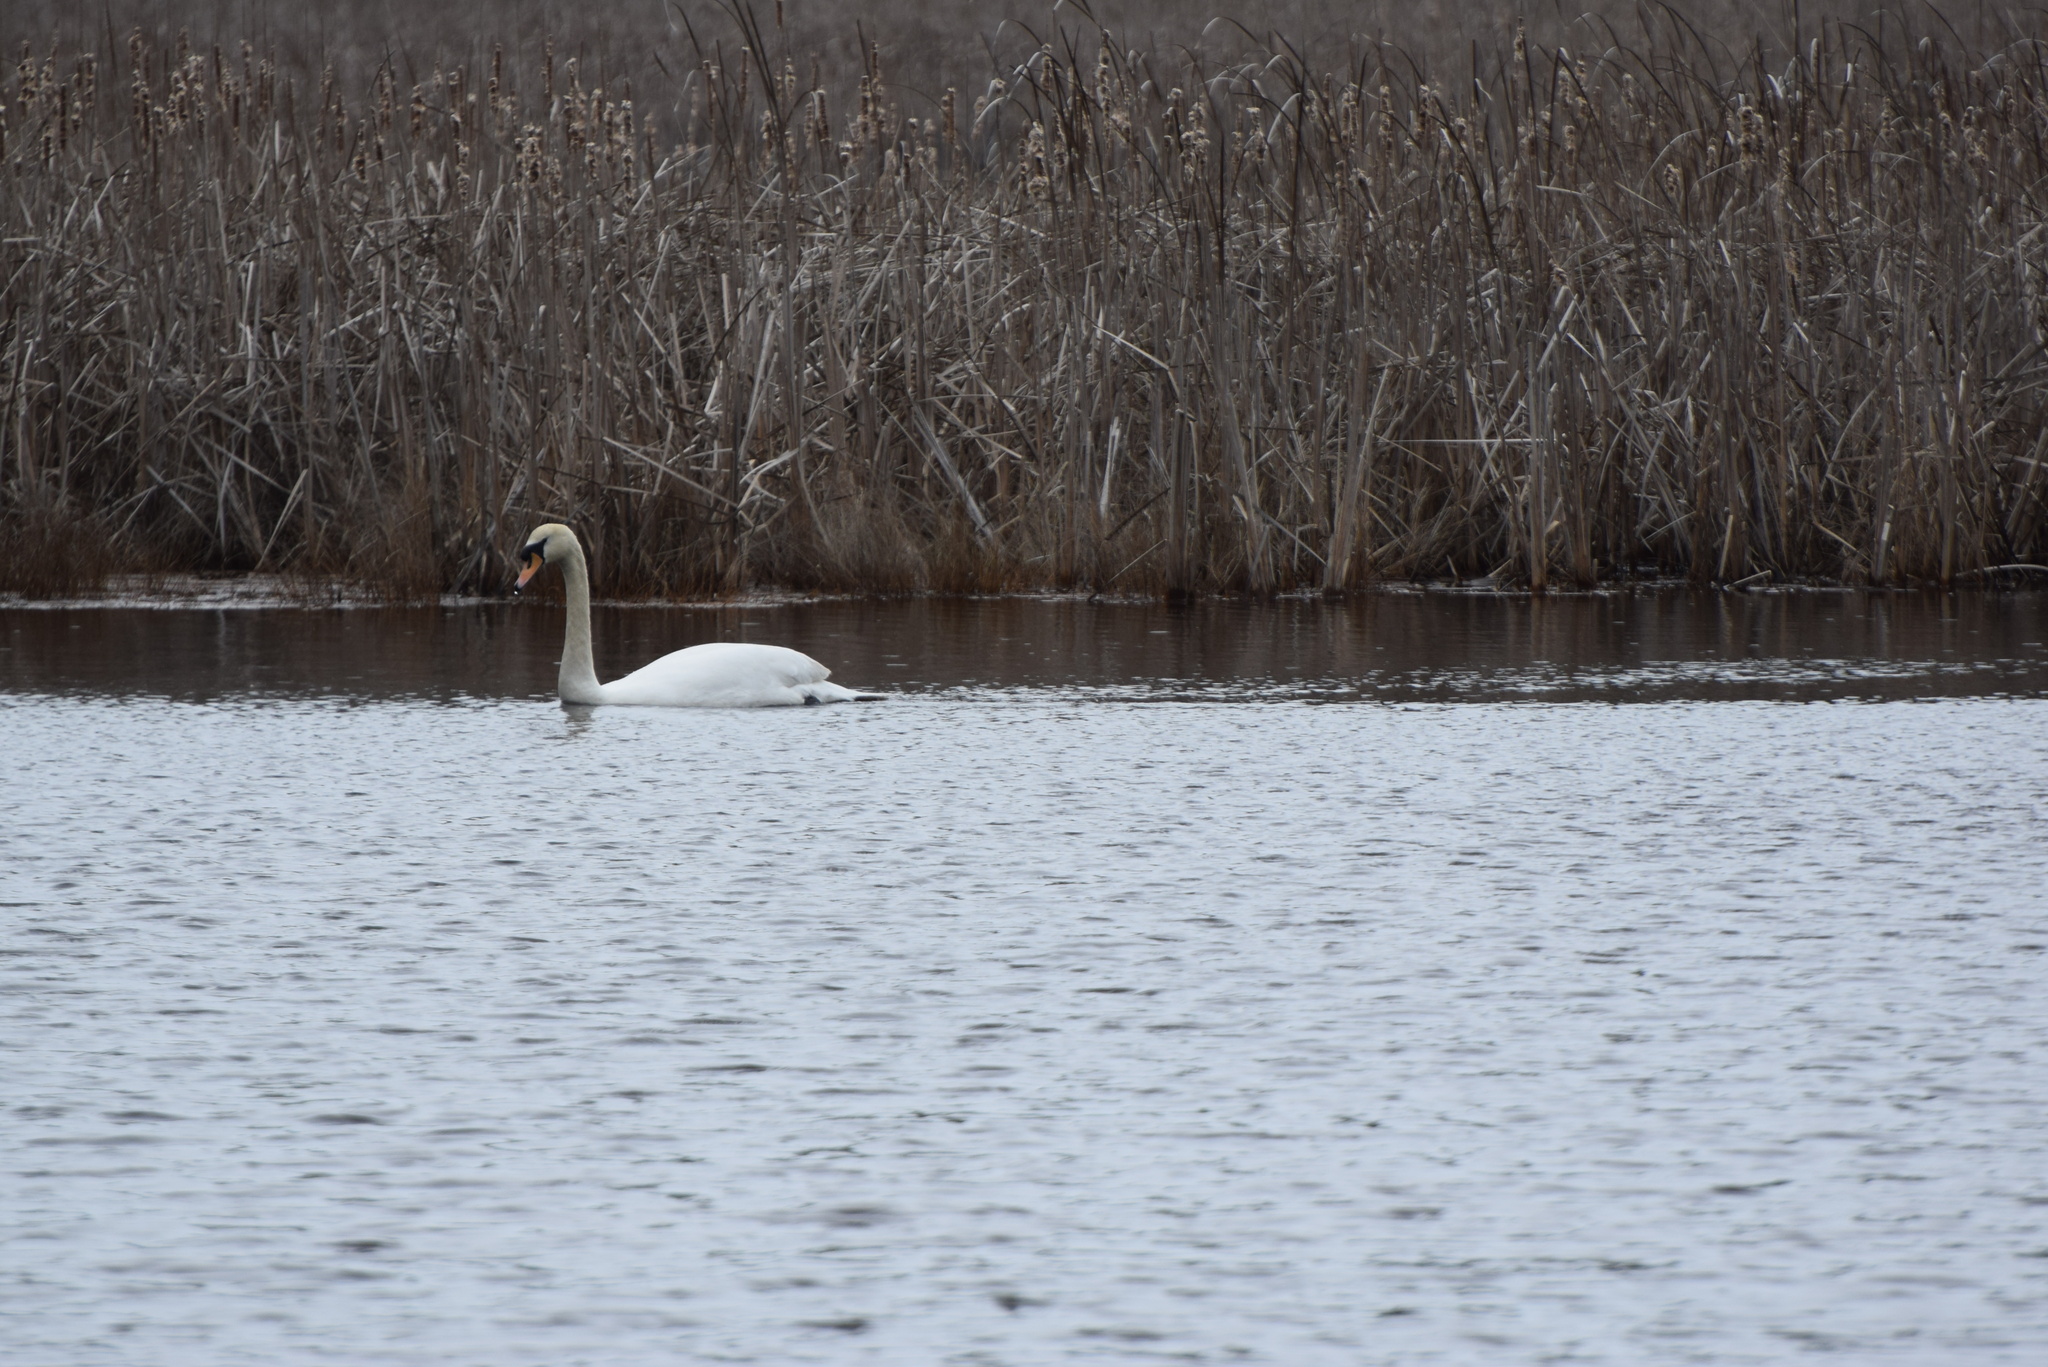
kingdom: Animalia
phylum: Chordata
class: Aves
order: Anseriformes
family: Anatidae
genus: Cygnus
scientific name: Cygnus olor
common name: Mute swan
